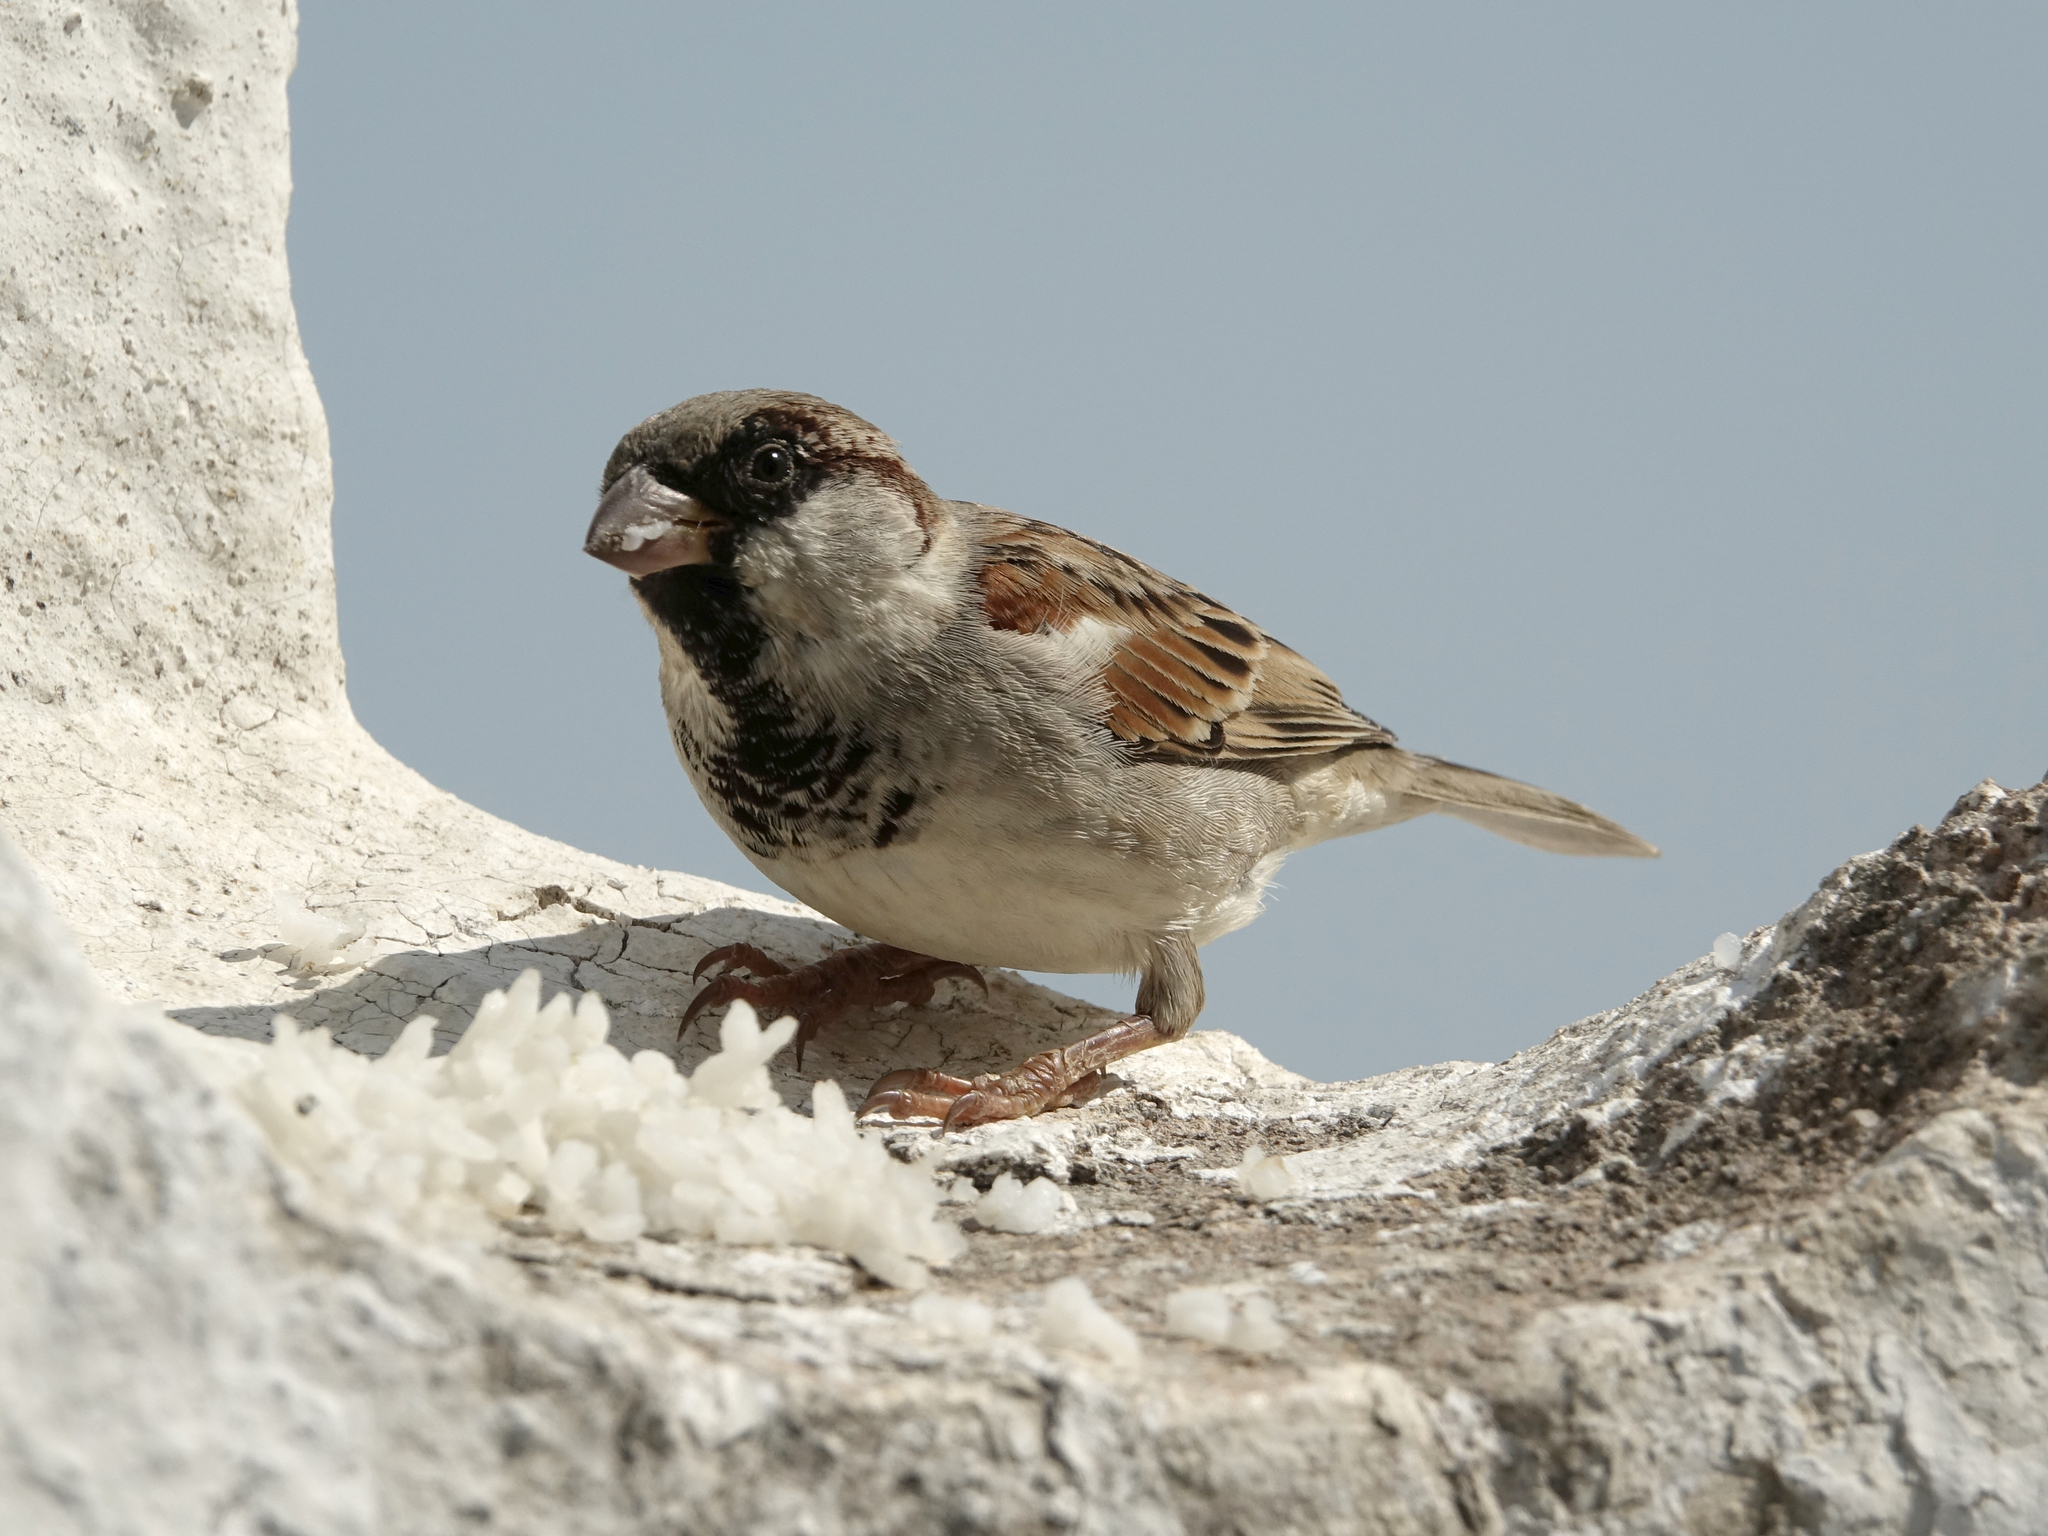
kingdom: Animalia
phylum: Chordata
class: Aves
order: Passeriformes
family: Passeridae
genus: Passer
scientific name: Passer domesticus
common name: House sparrow
